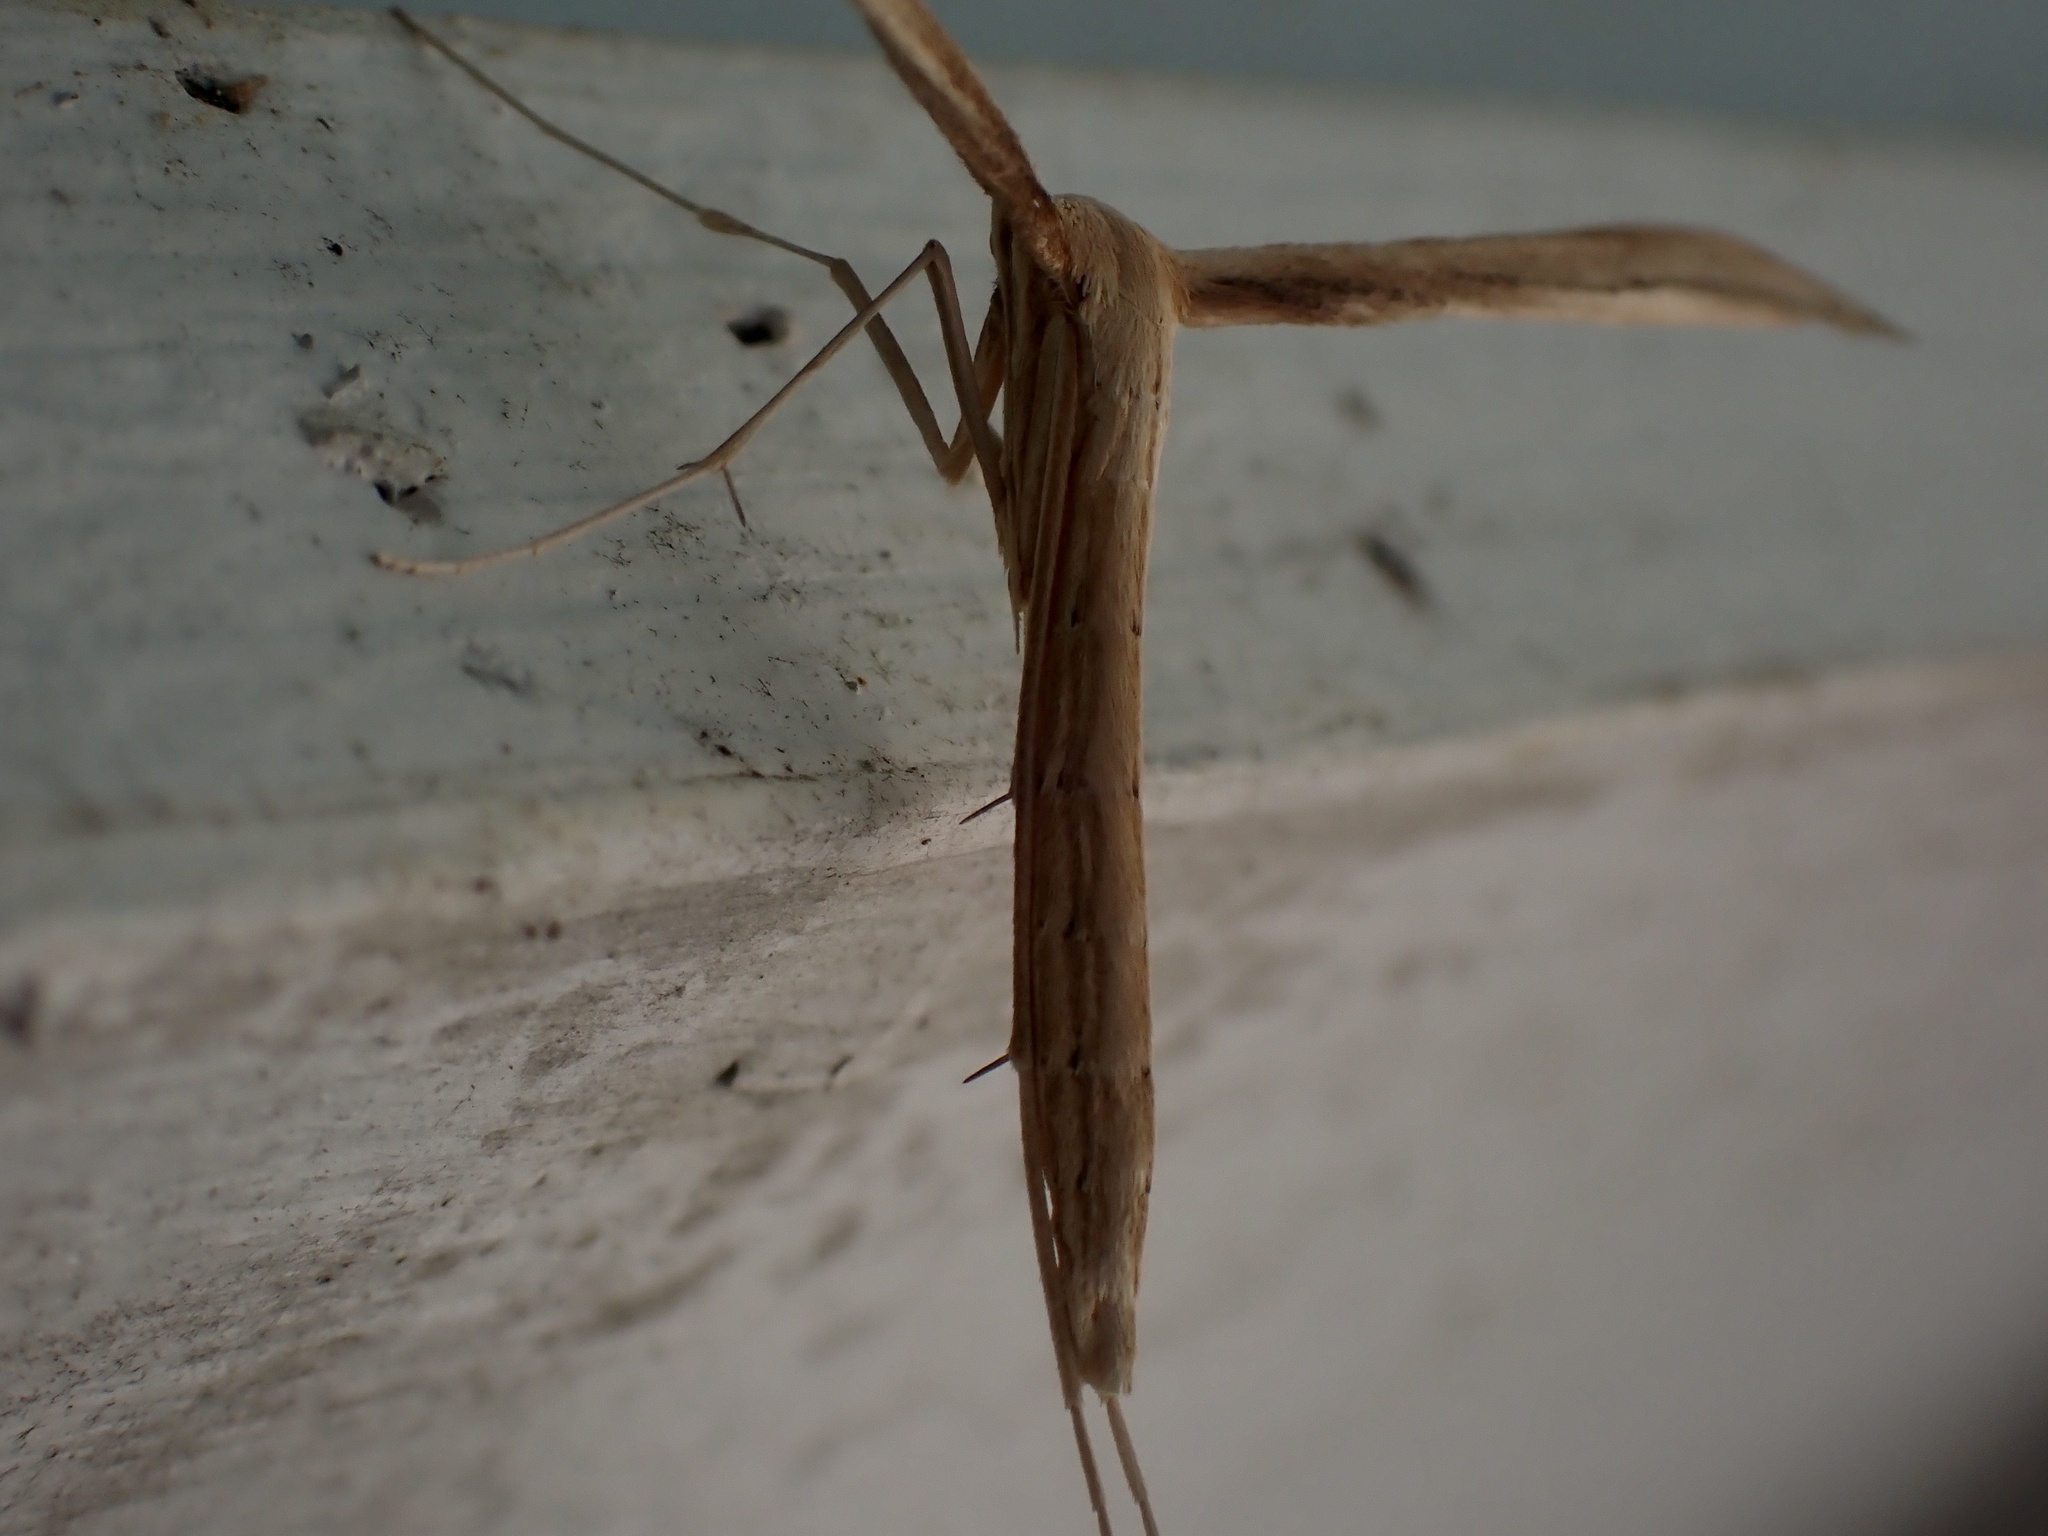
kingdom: Animalia
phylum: Arthropoda
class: Insecta
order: Lepidoptera
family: Pterophoridae
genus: Hellinsia
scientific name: Hellinsia balanotes
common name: Baccharis borer
